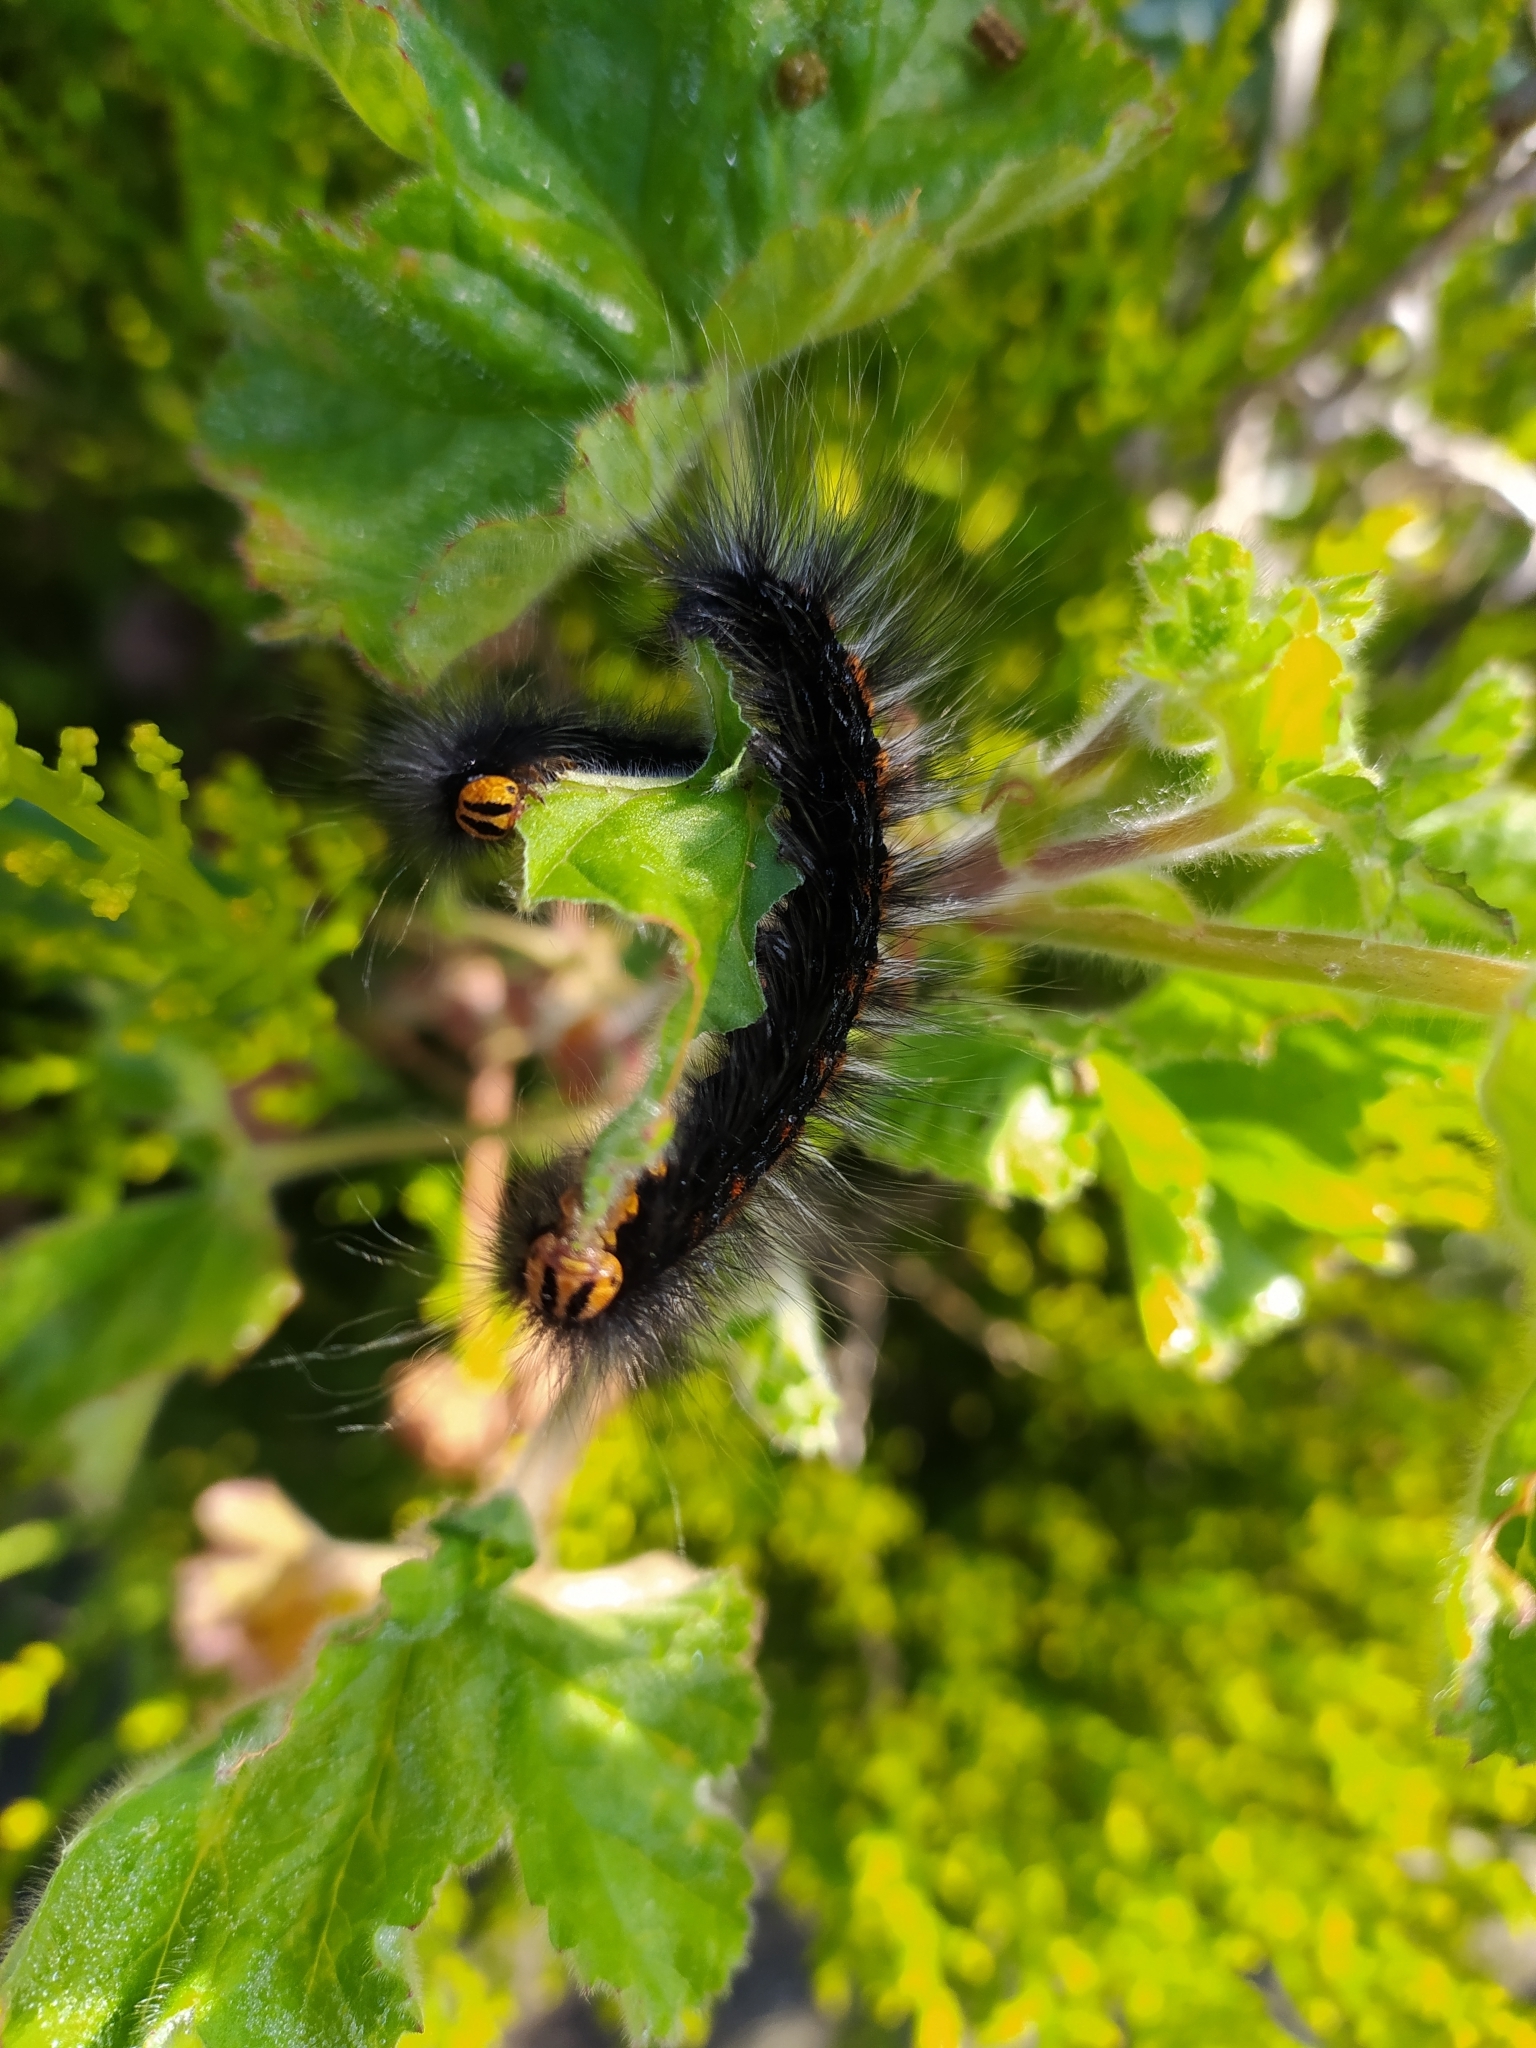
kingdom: Animalia
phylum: Arthropoda
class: Insecta
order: Lepidoptera
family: Lasiocampidae
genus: Mesocelis
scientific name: Mesocelis monticola
